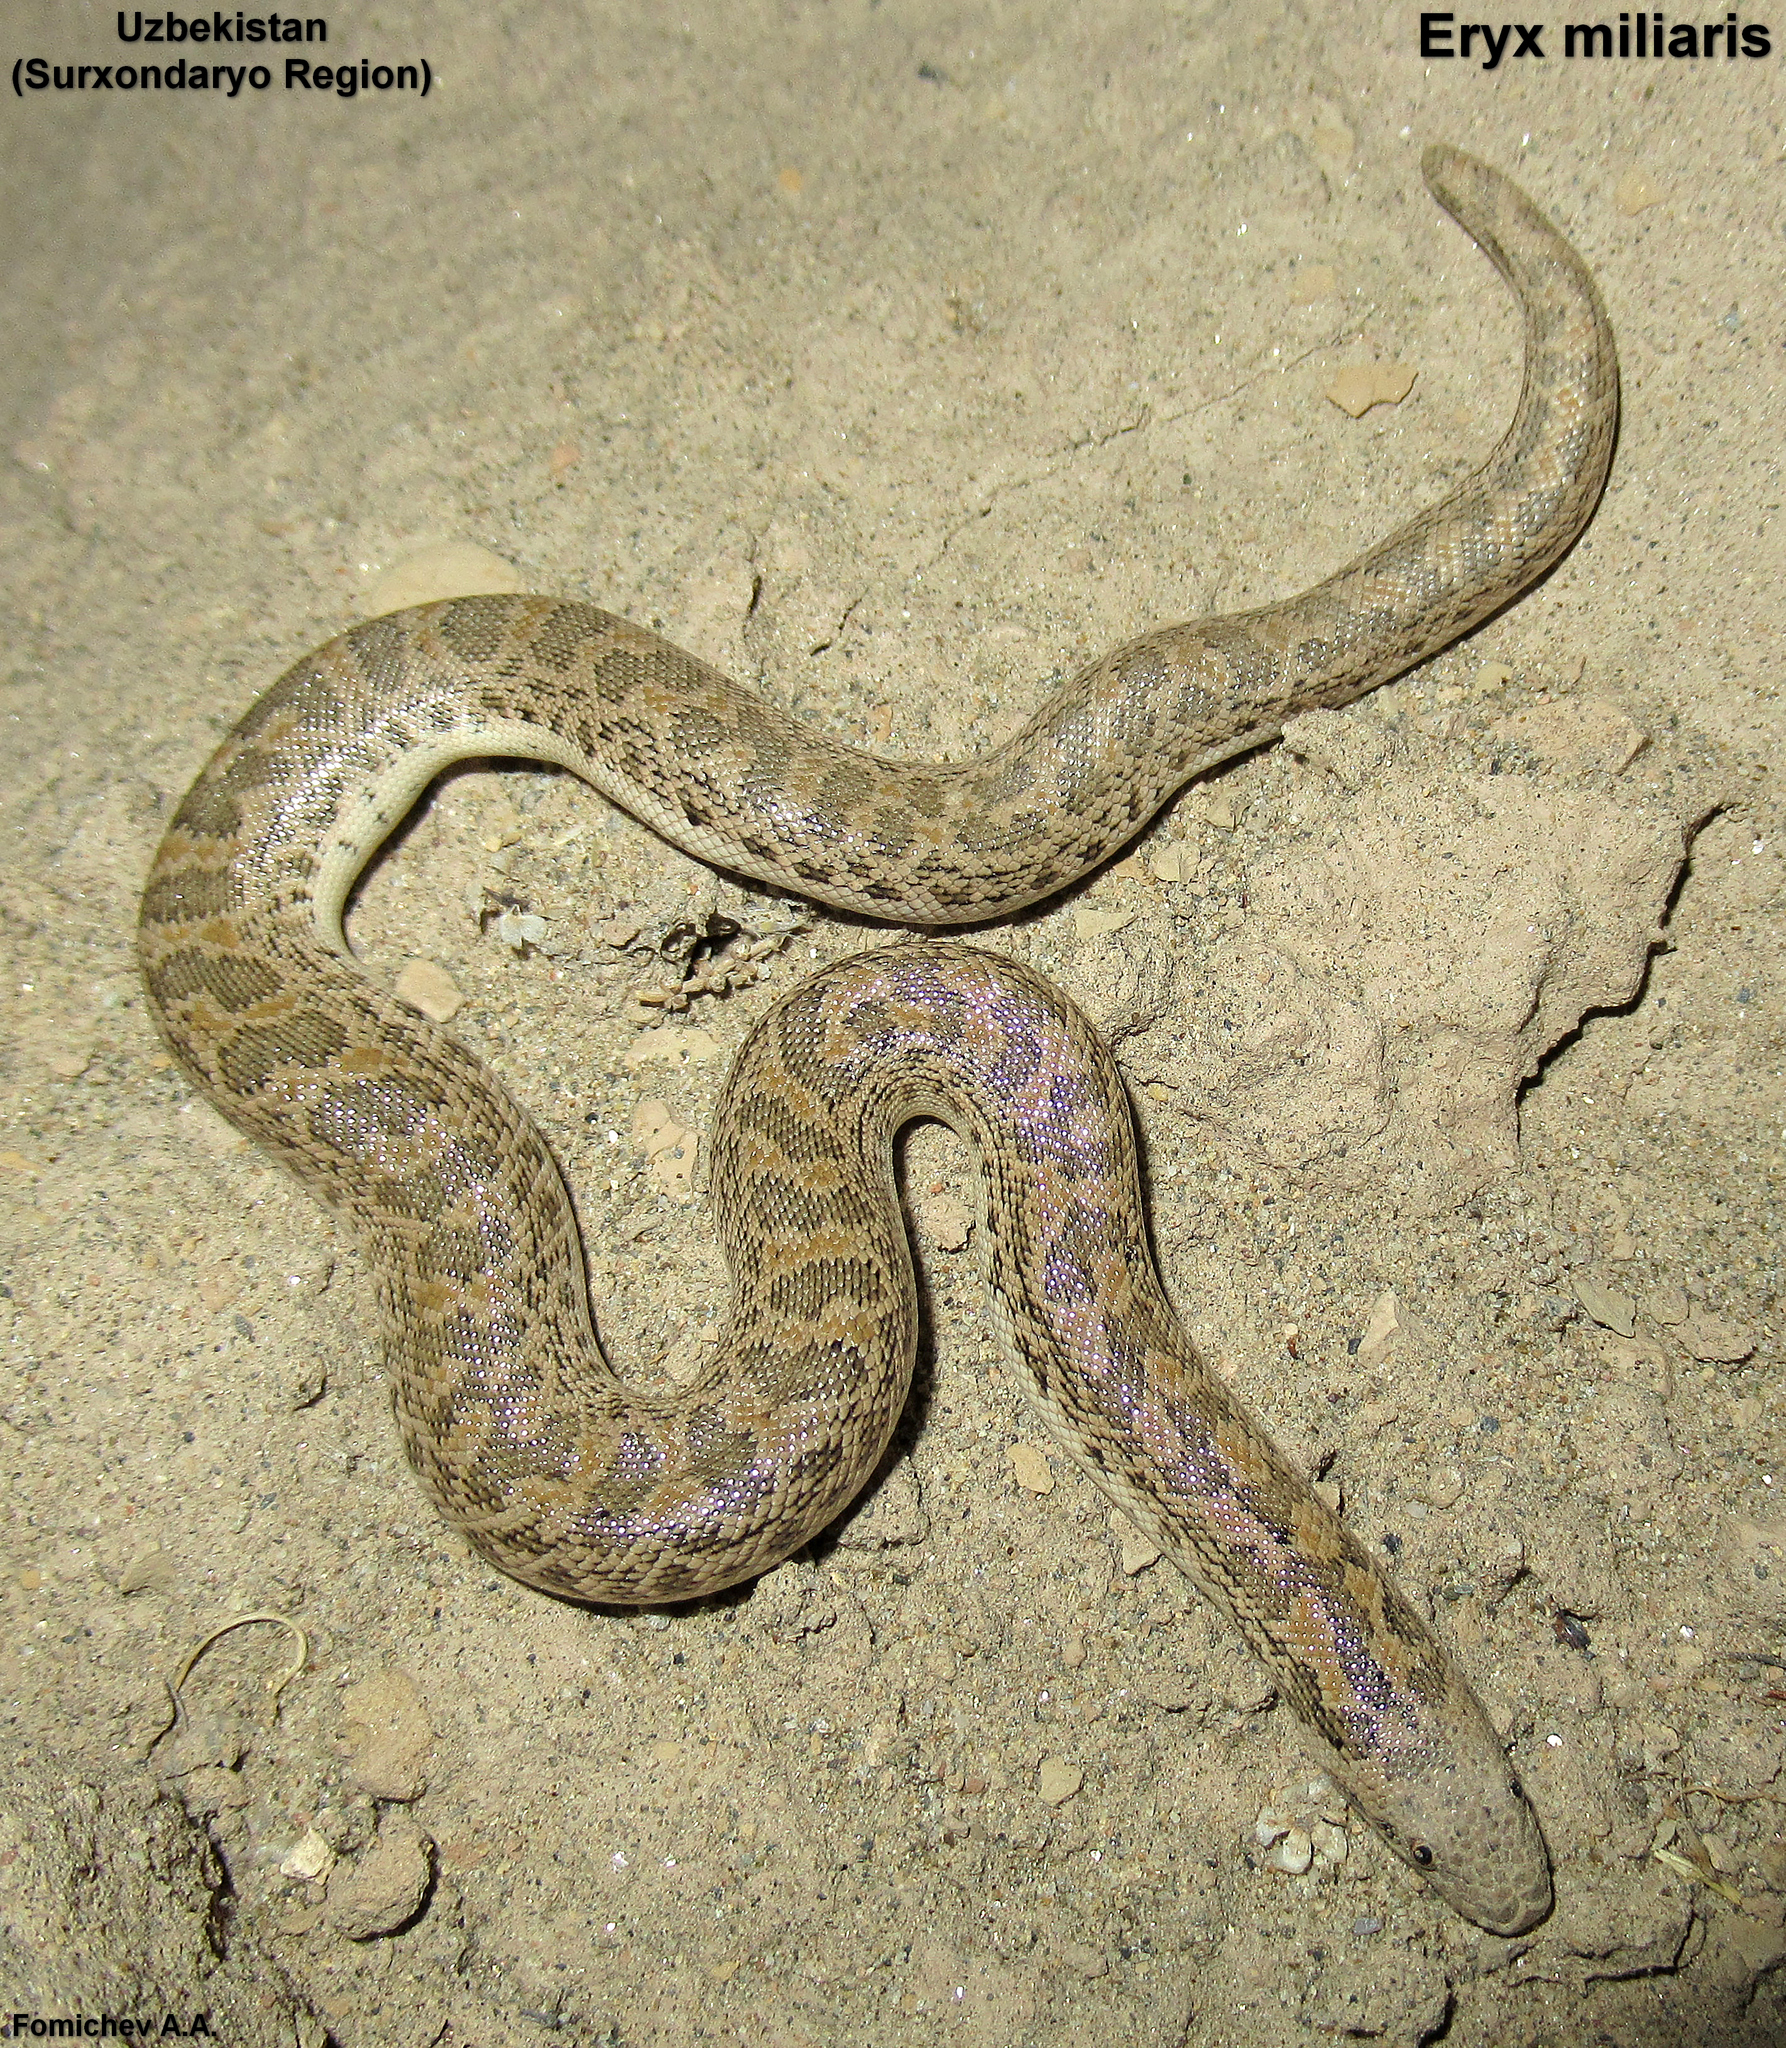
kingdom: Animalia
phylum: Chordata
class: Squamata
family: Boidae
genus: Eryx
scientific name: Eryx miliaris
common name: Desert sand boa
